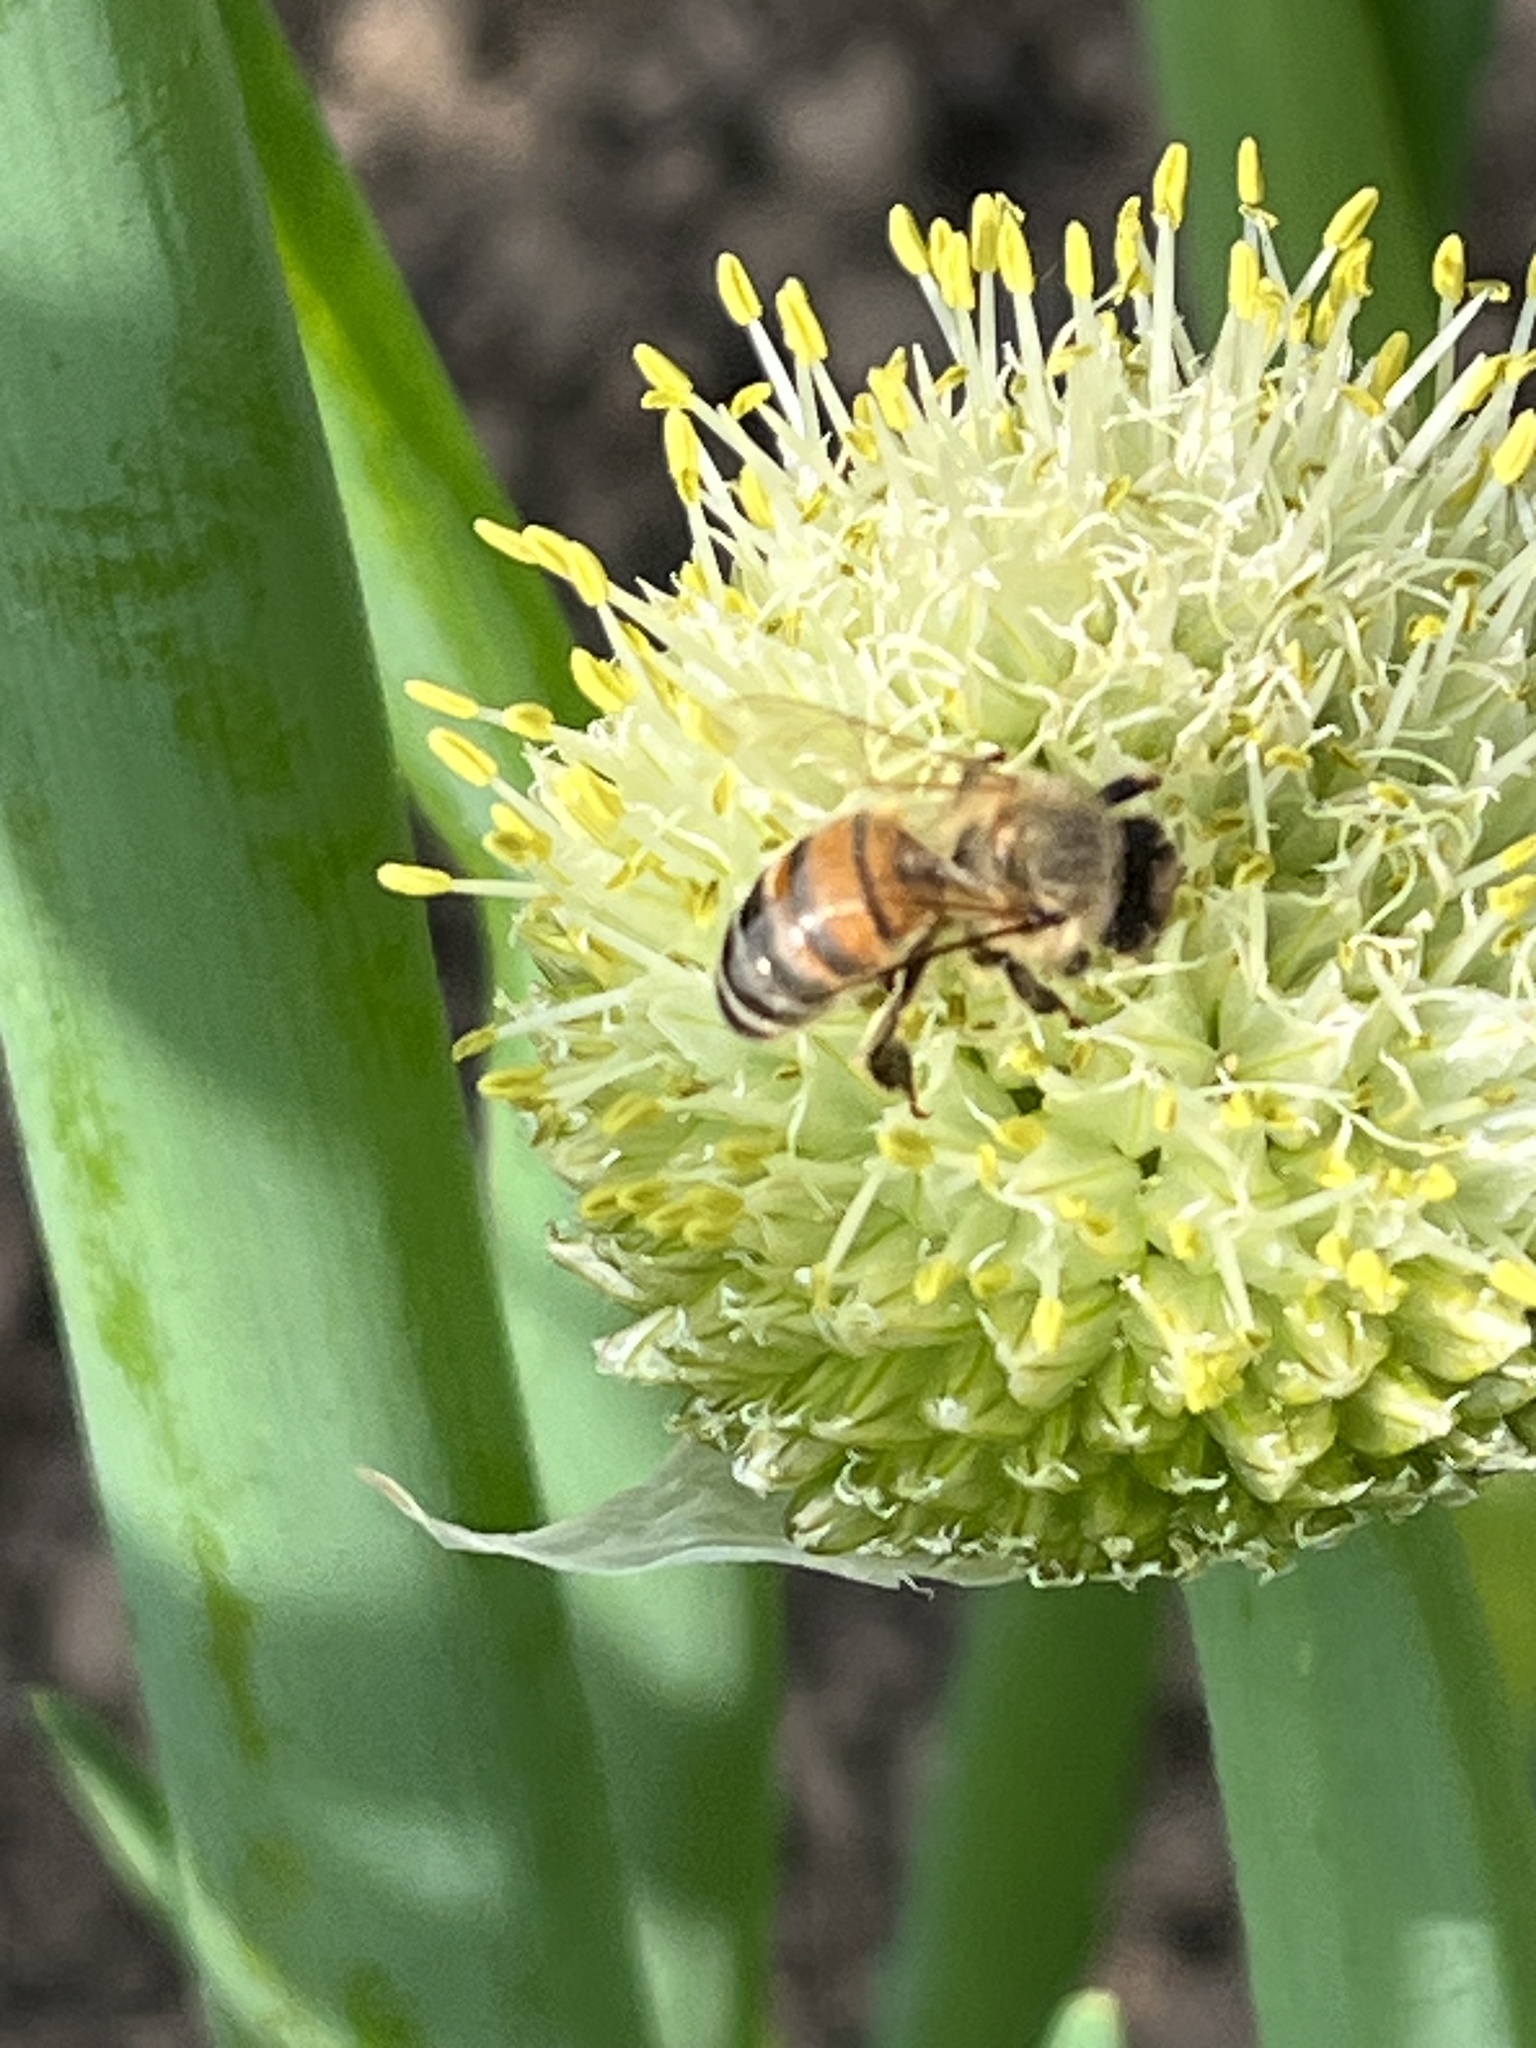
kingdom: Animalia
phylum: Arthropoda
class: Insecta
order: Hymenoptera
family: Apidae
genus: Apis
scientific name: Apis mellifera
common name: Honey bee
